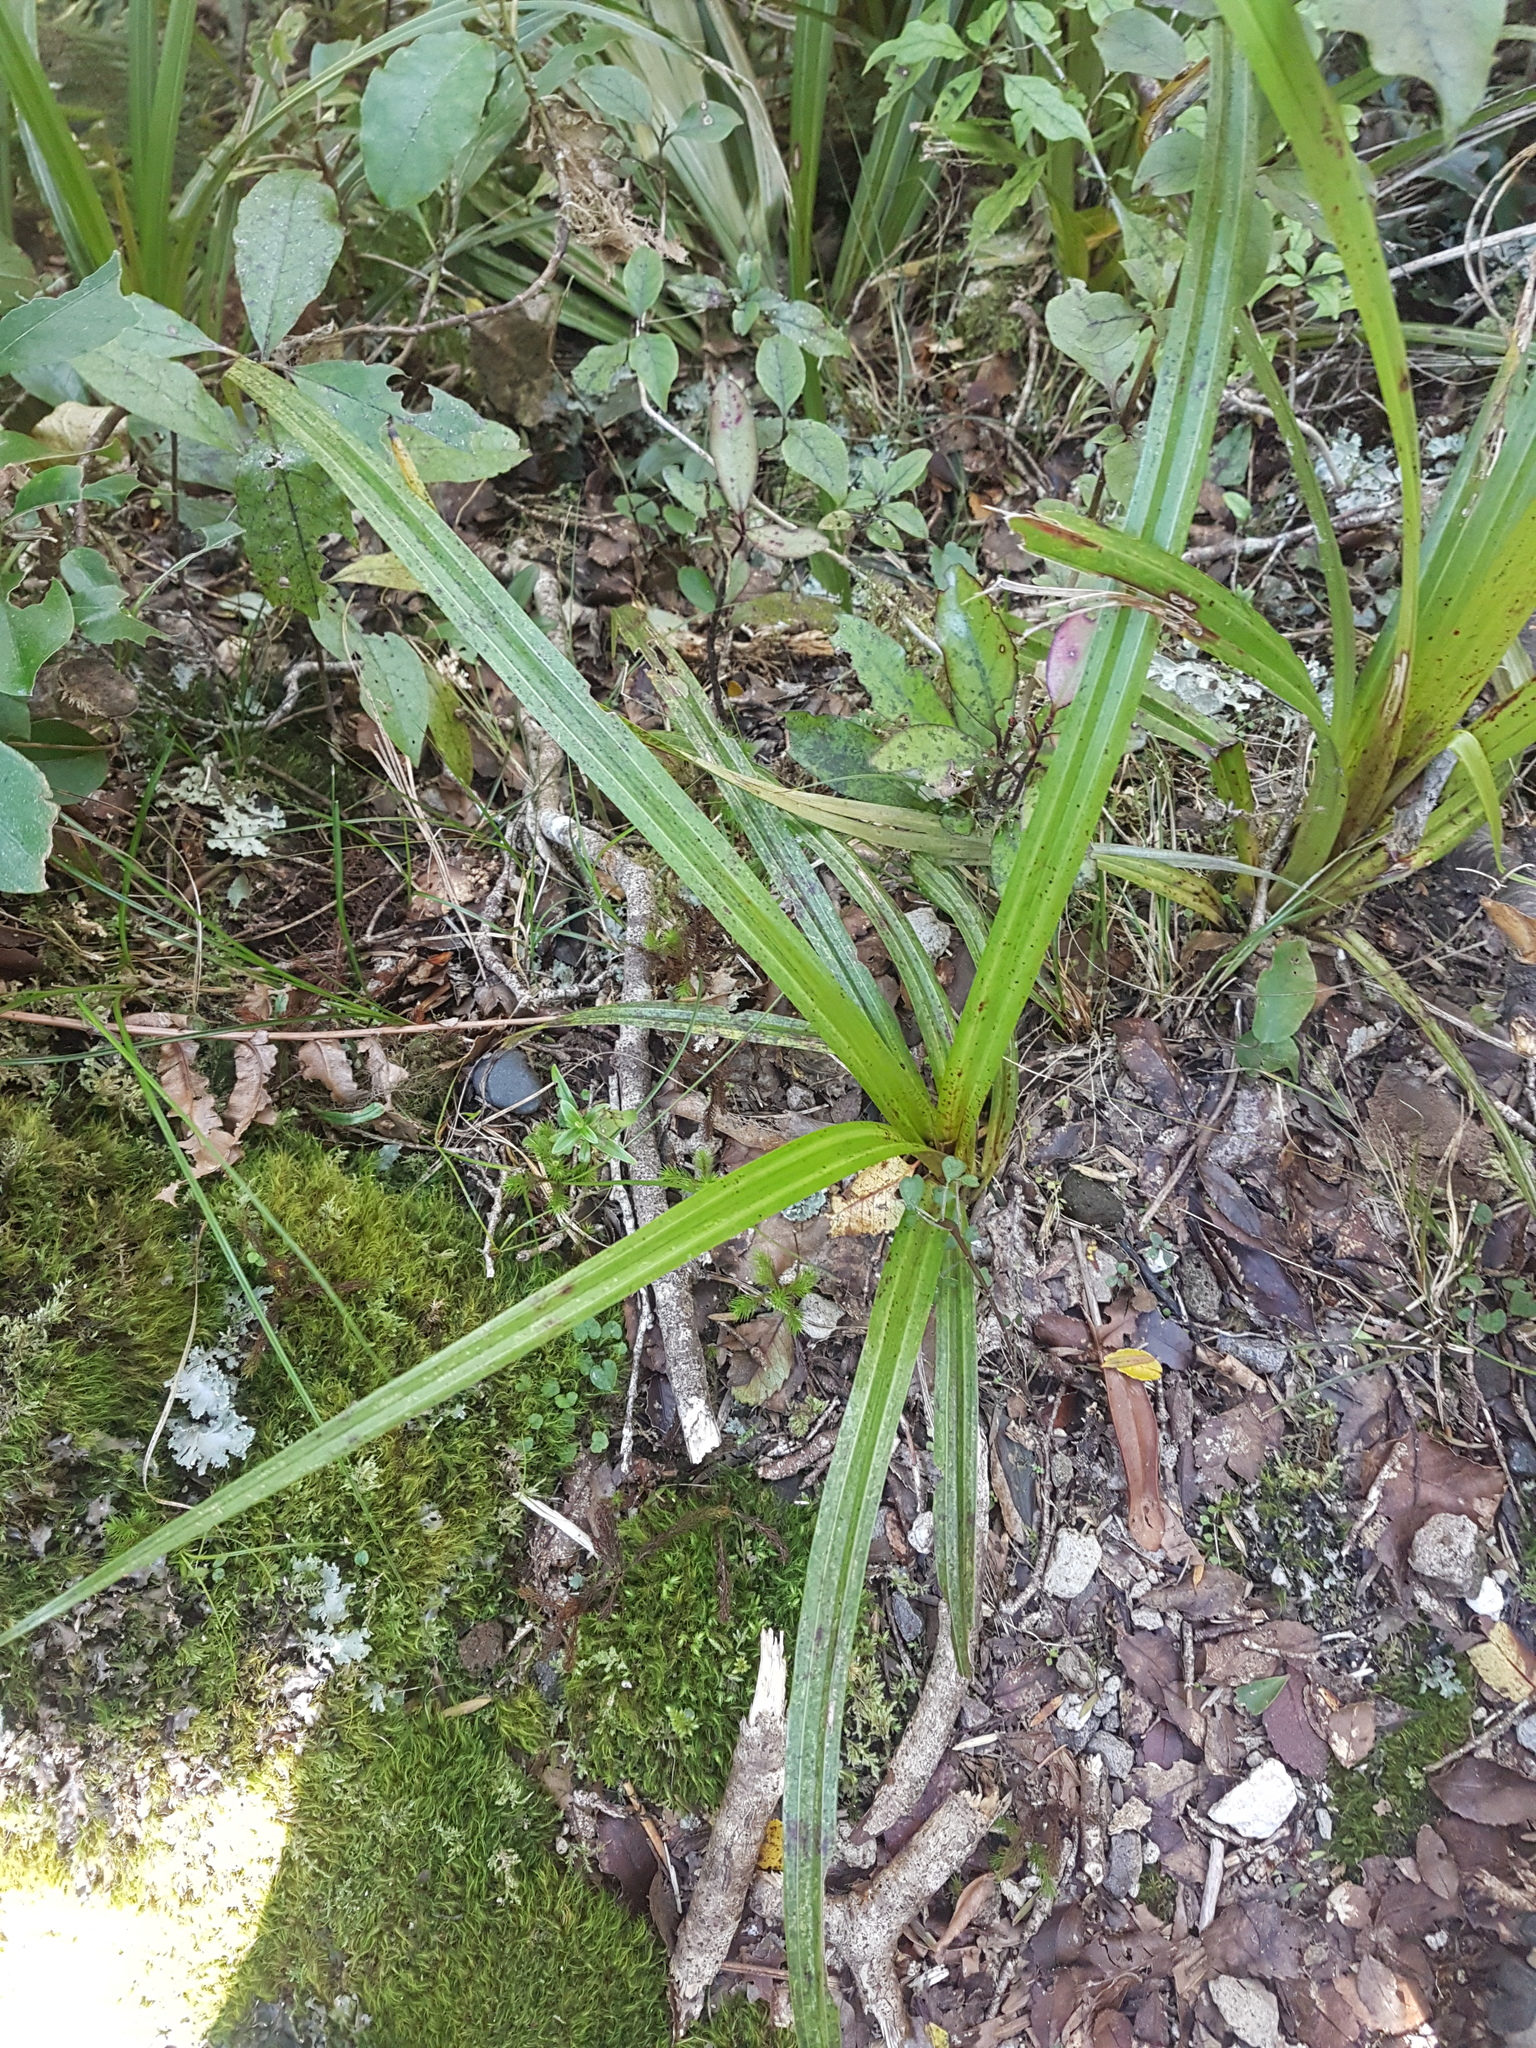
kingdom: Plantae
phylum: Tracheophyta
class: Liliopsida
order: Asparagales
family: Asteliaceae
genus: Astelia
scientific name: Astelia fragrans
